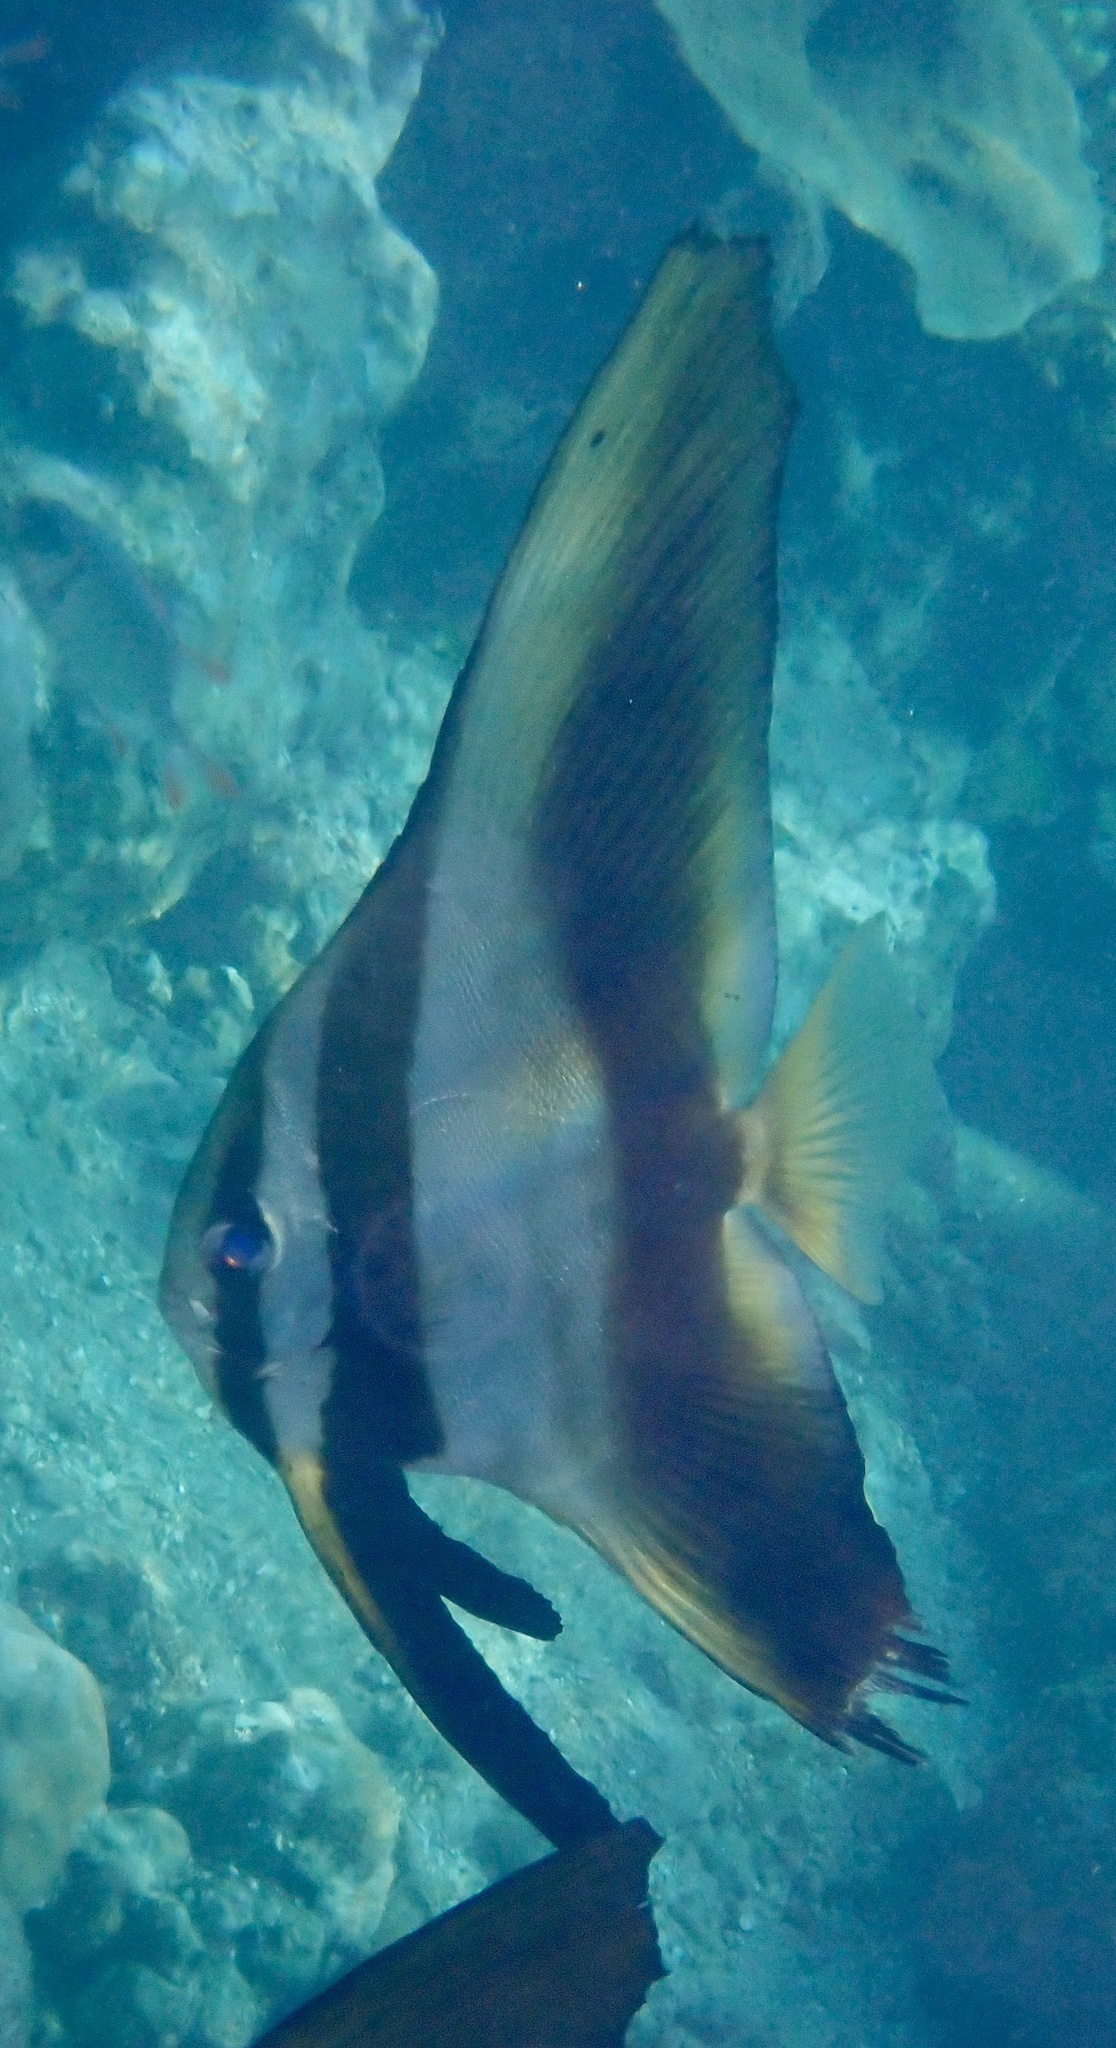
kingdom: Animalia
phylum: Chordata
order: Perciformes
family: Ephippidae
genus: Platax
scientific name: Platax boersii
